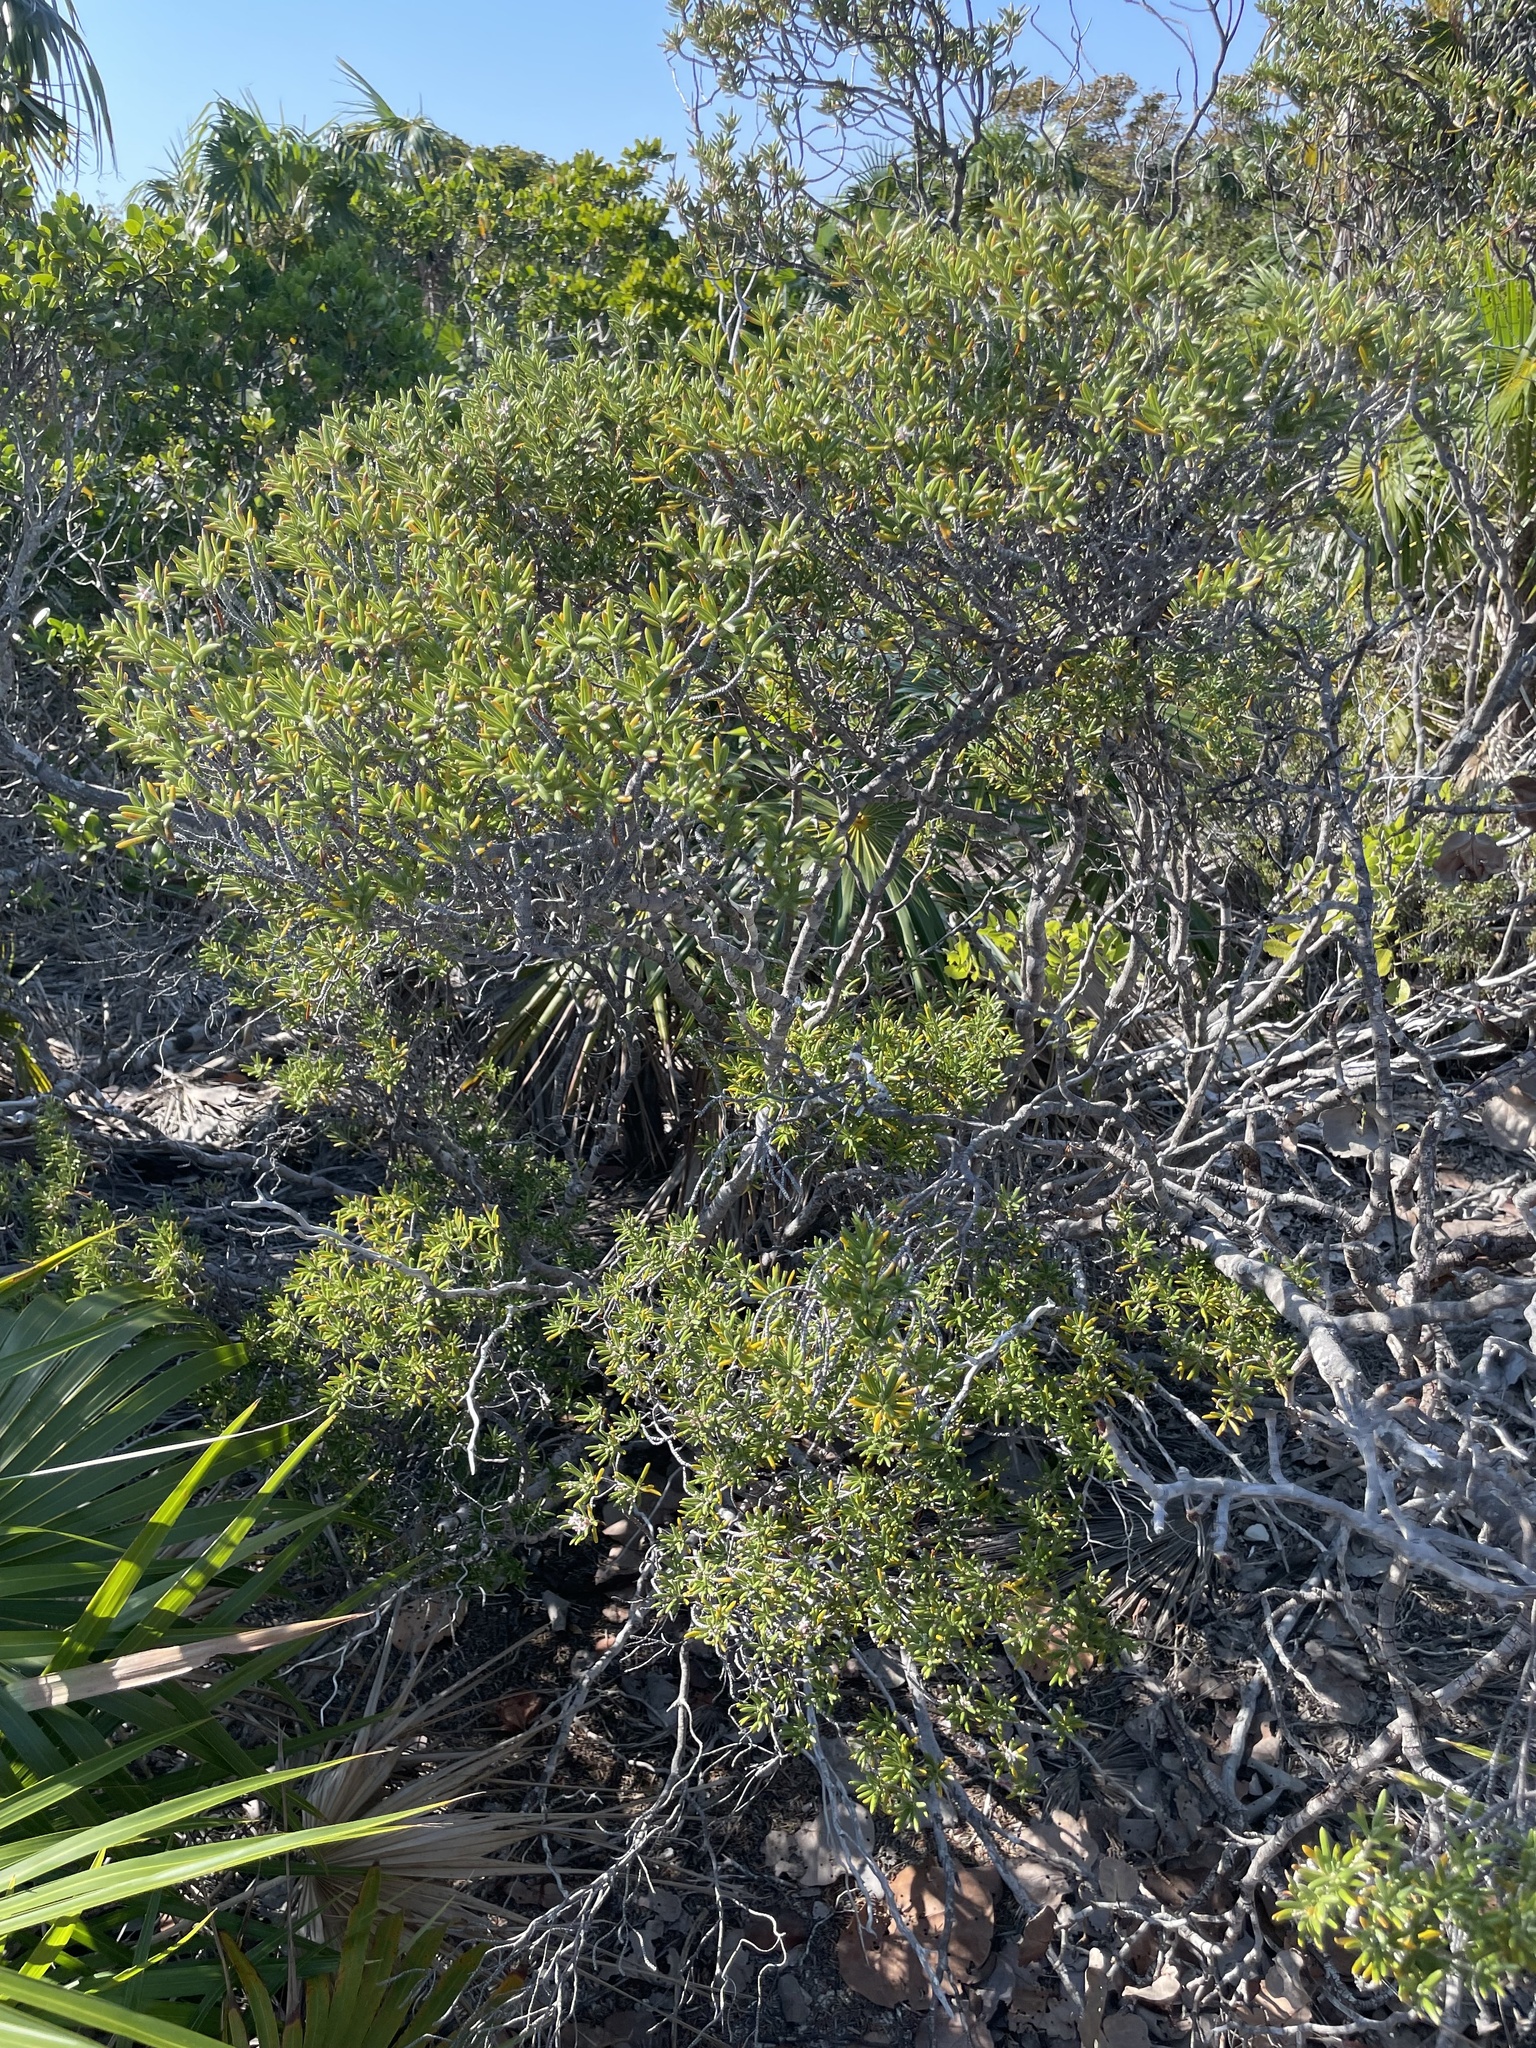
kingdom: Plantae
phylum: Tracheophyta
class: Magnoliopsida
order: Gentianales
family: Rubiaceae
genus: Strumpfia
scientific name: Strumpfia maritima
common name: Pride-of-big pine
